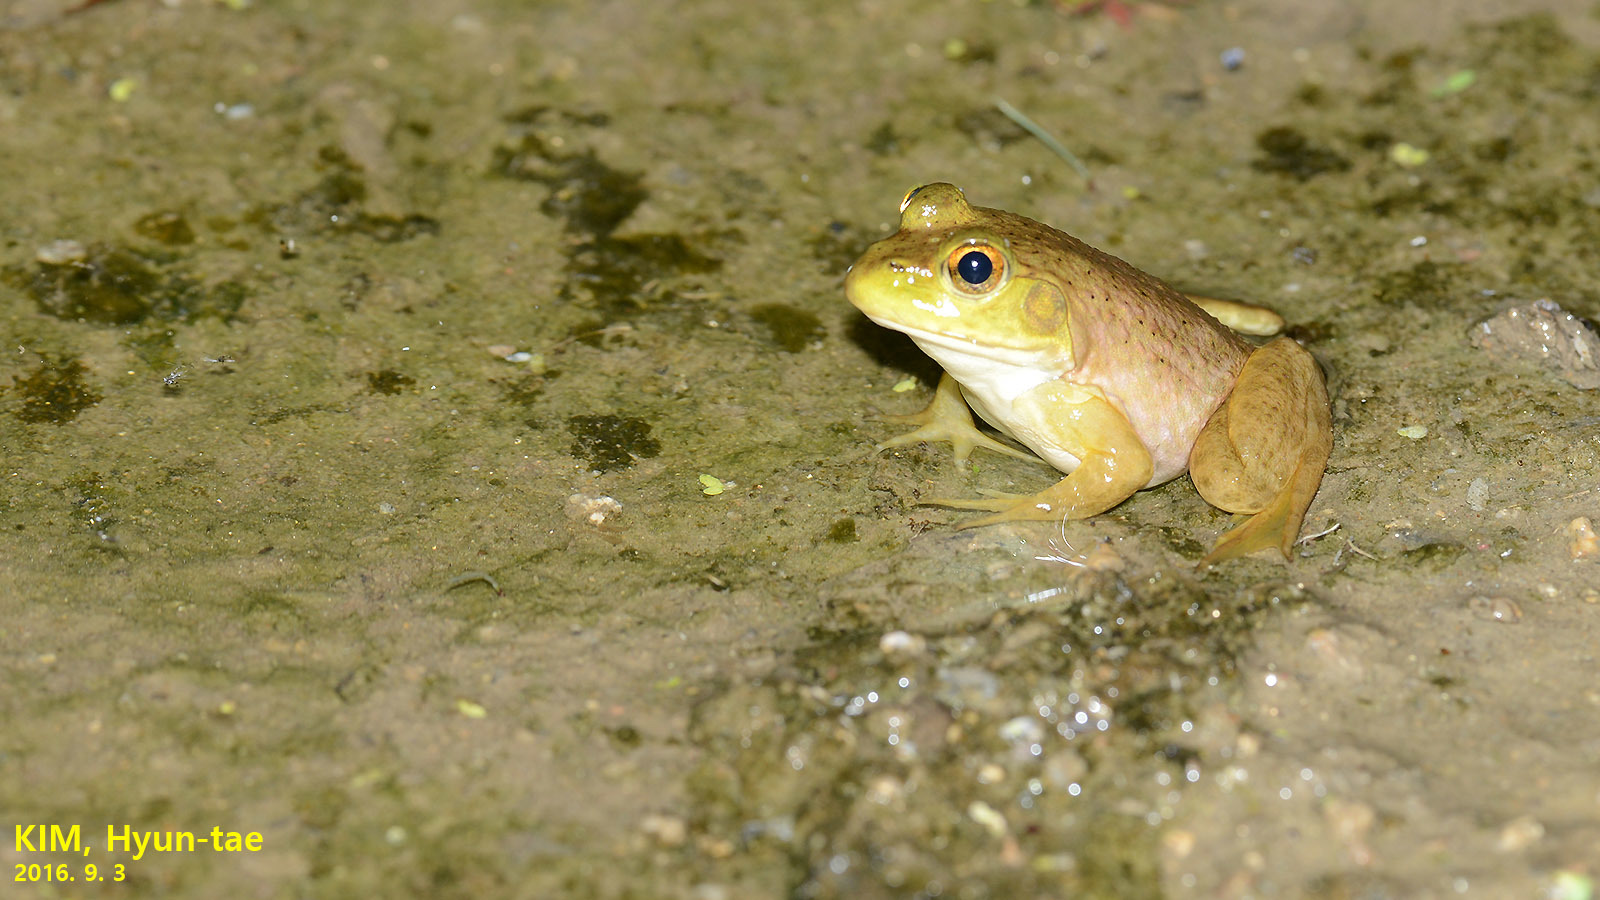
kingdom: Animalia
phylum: Chordata
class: Amphibia
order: Anura
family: Ranidae
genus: Lithobates
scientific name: Lithobates catesbeianus
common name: American bullfrog
